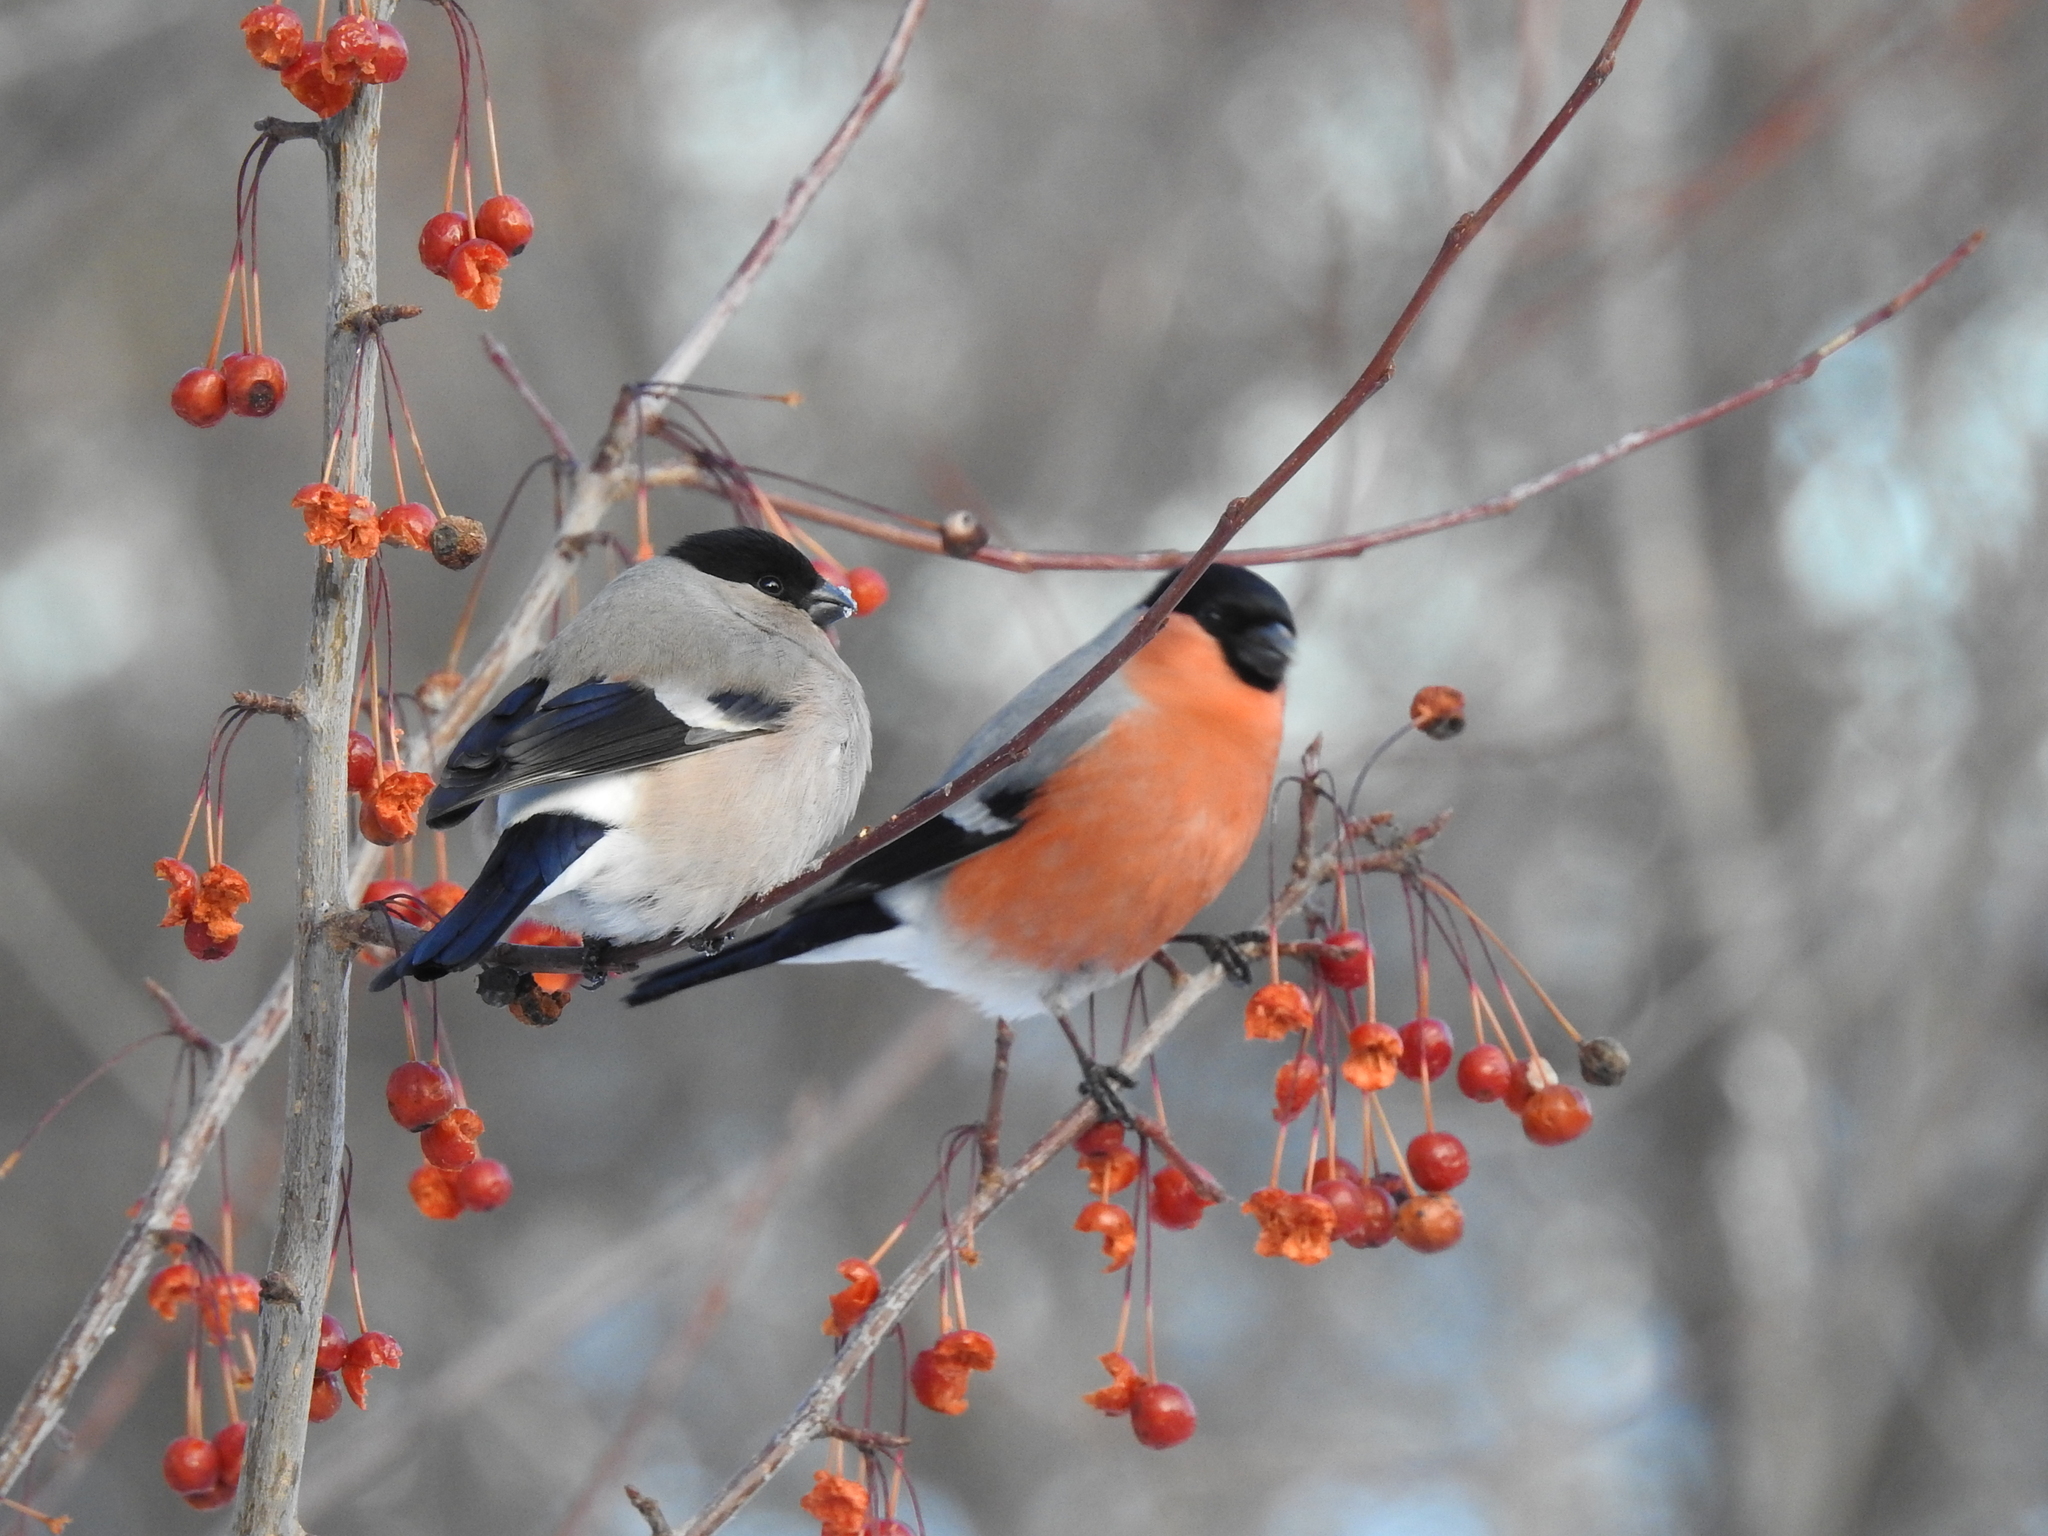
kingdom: Animalia
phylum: Chordata
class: Aves
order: Passeriformes
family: Fringillidae
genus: Pyrrhula
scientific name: Pyrrhula pyrrhula
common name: Eurasian bullfinch
